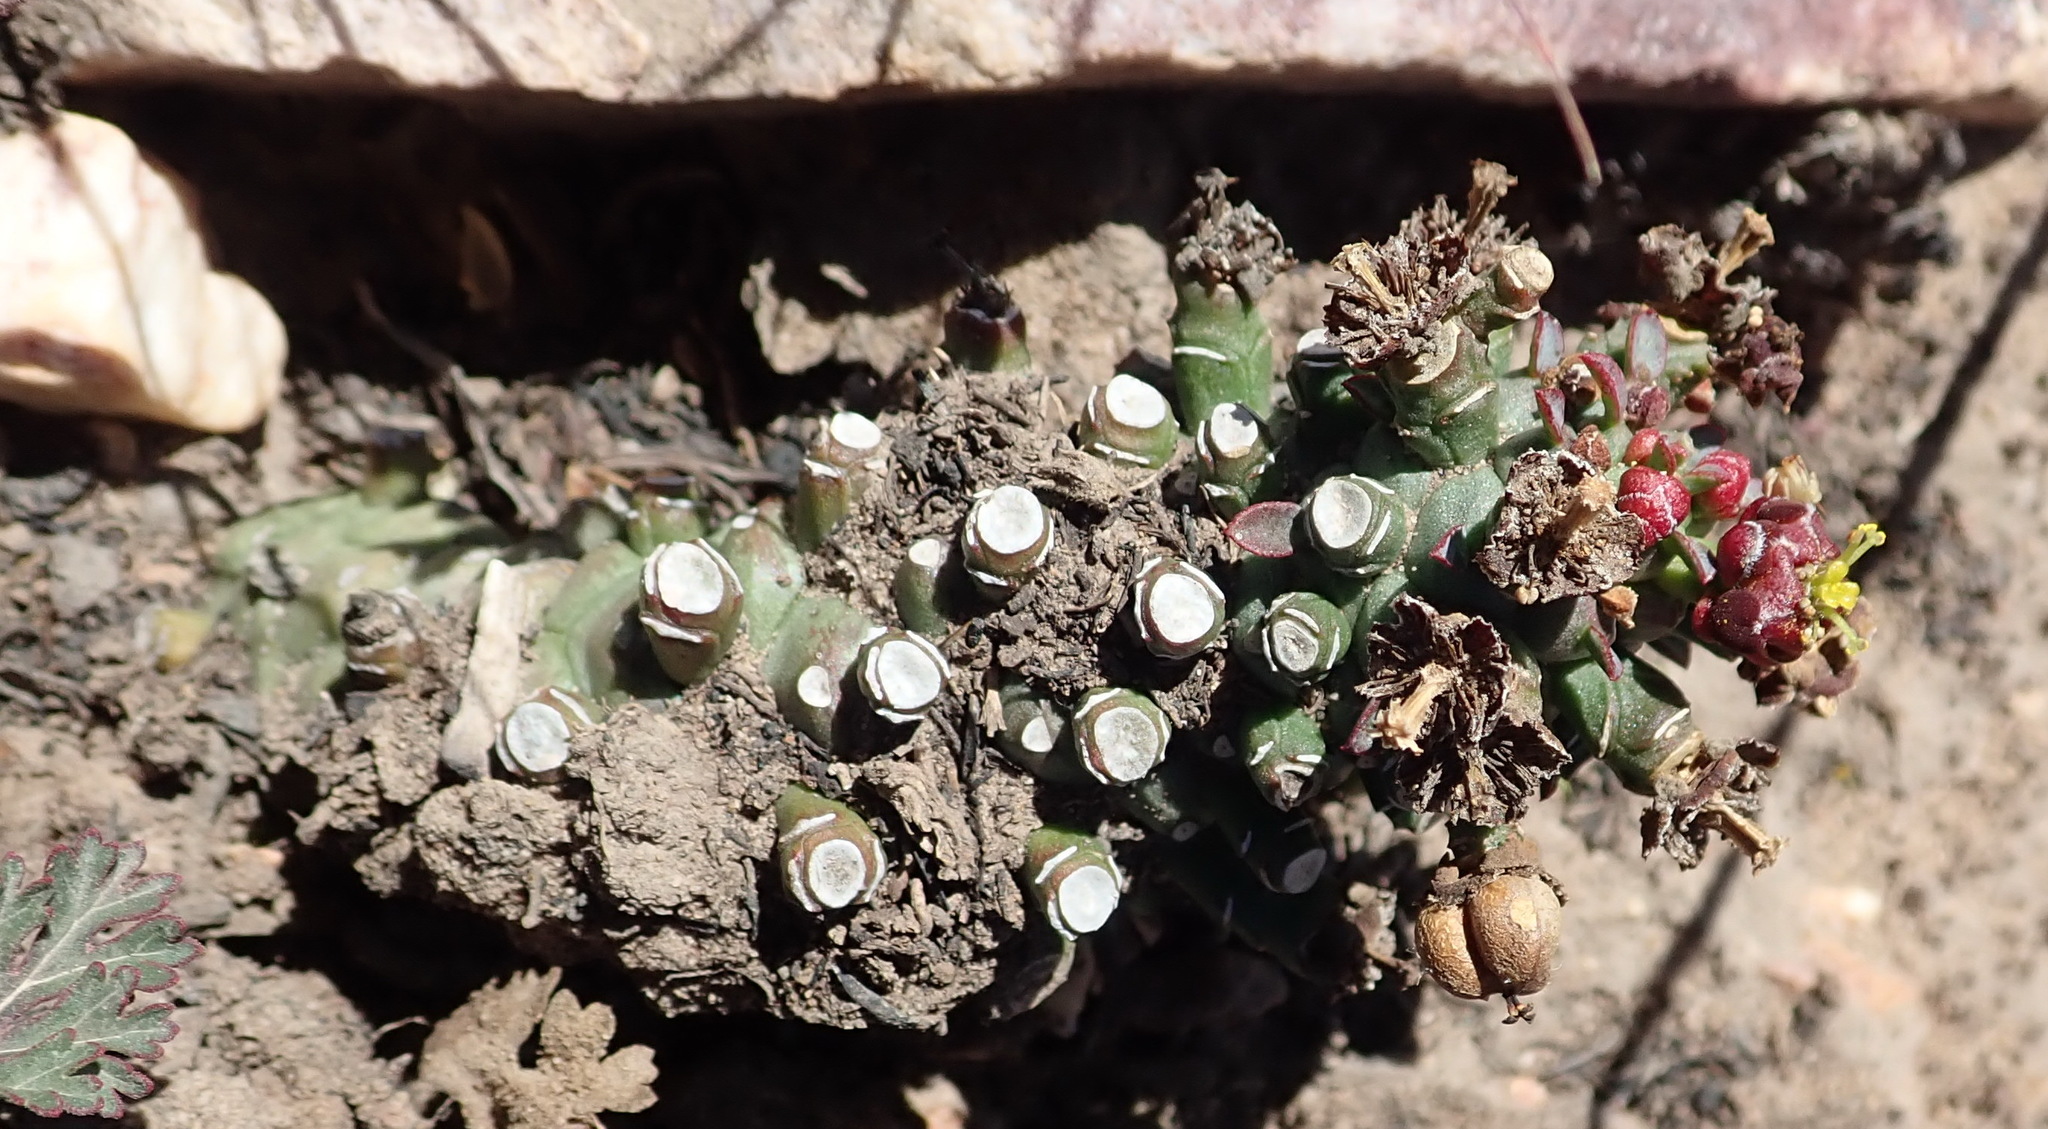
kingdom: Plantae
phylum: Tracheophyta
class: Magnoliopsida
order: Malpighiales
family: Euphorbiaceae
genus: Euphorbia
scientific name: Euphorbia procumbens
